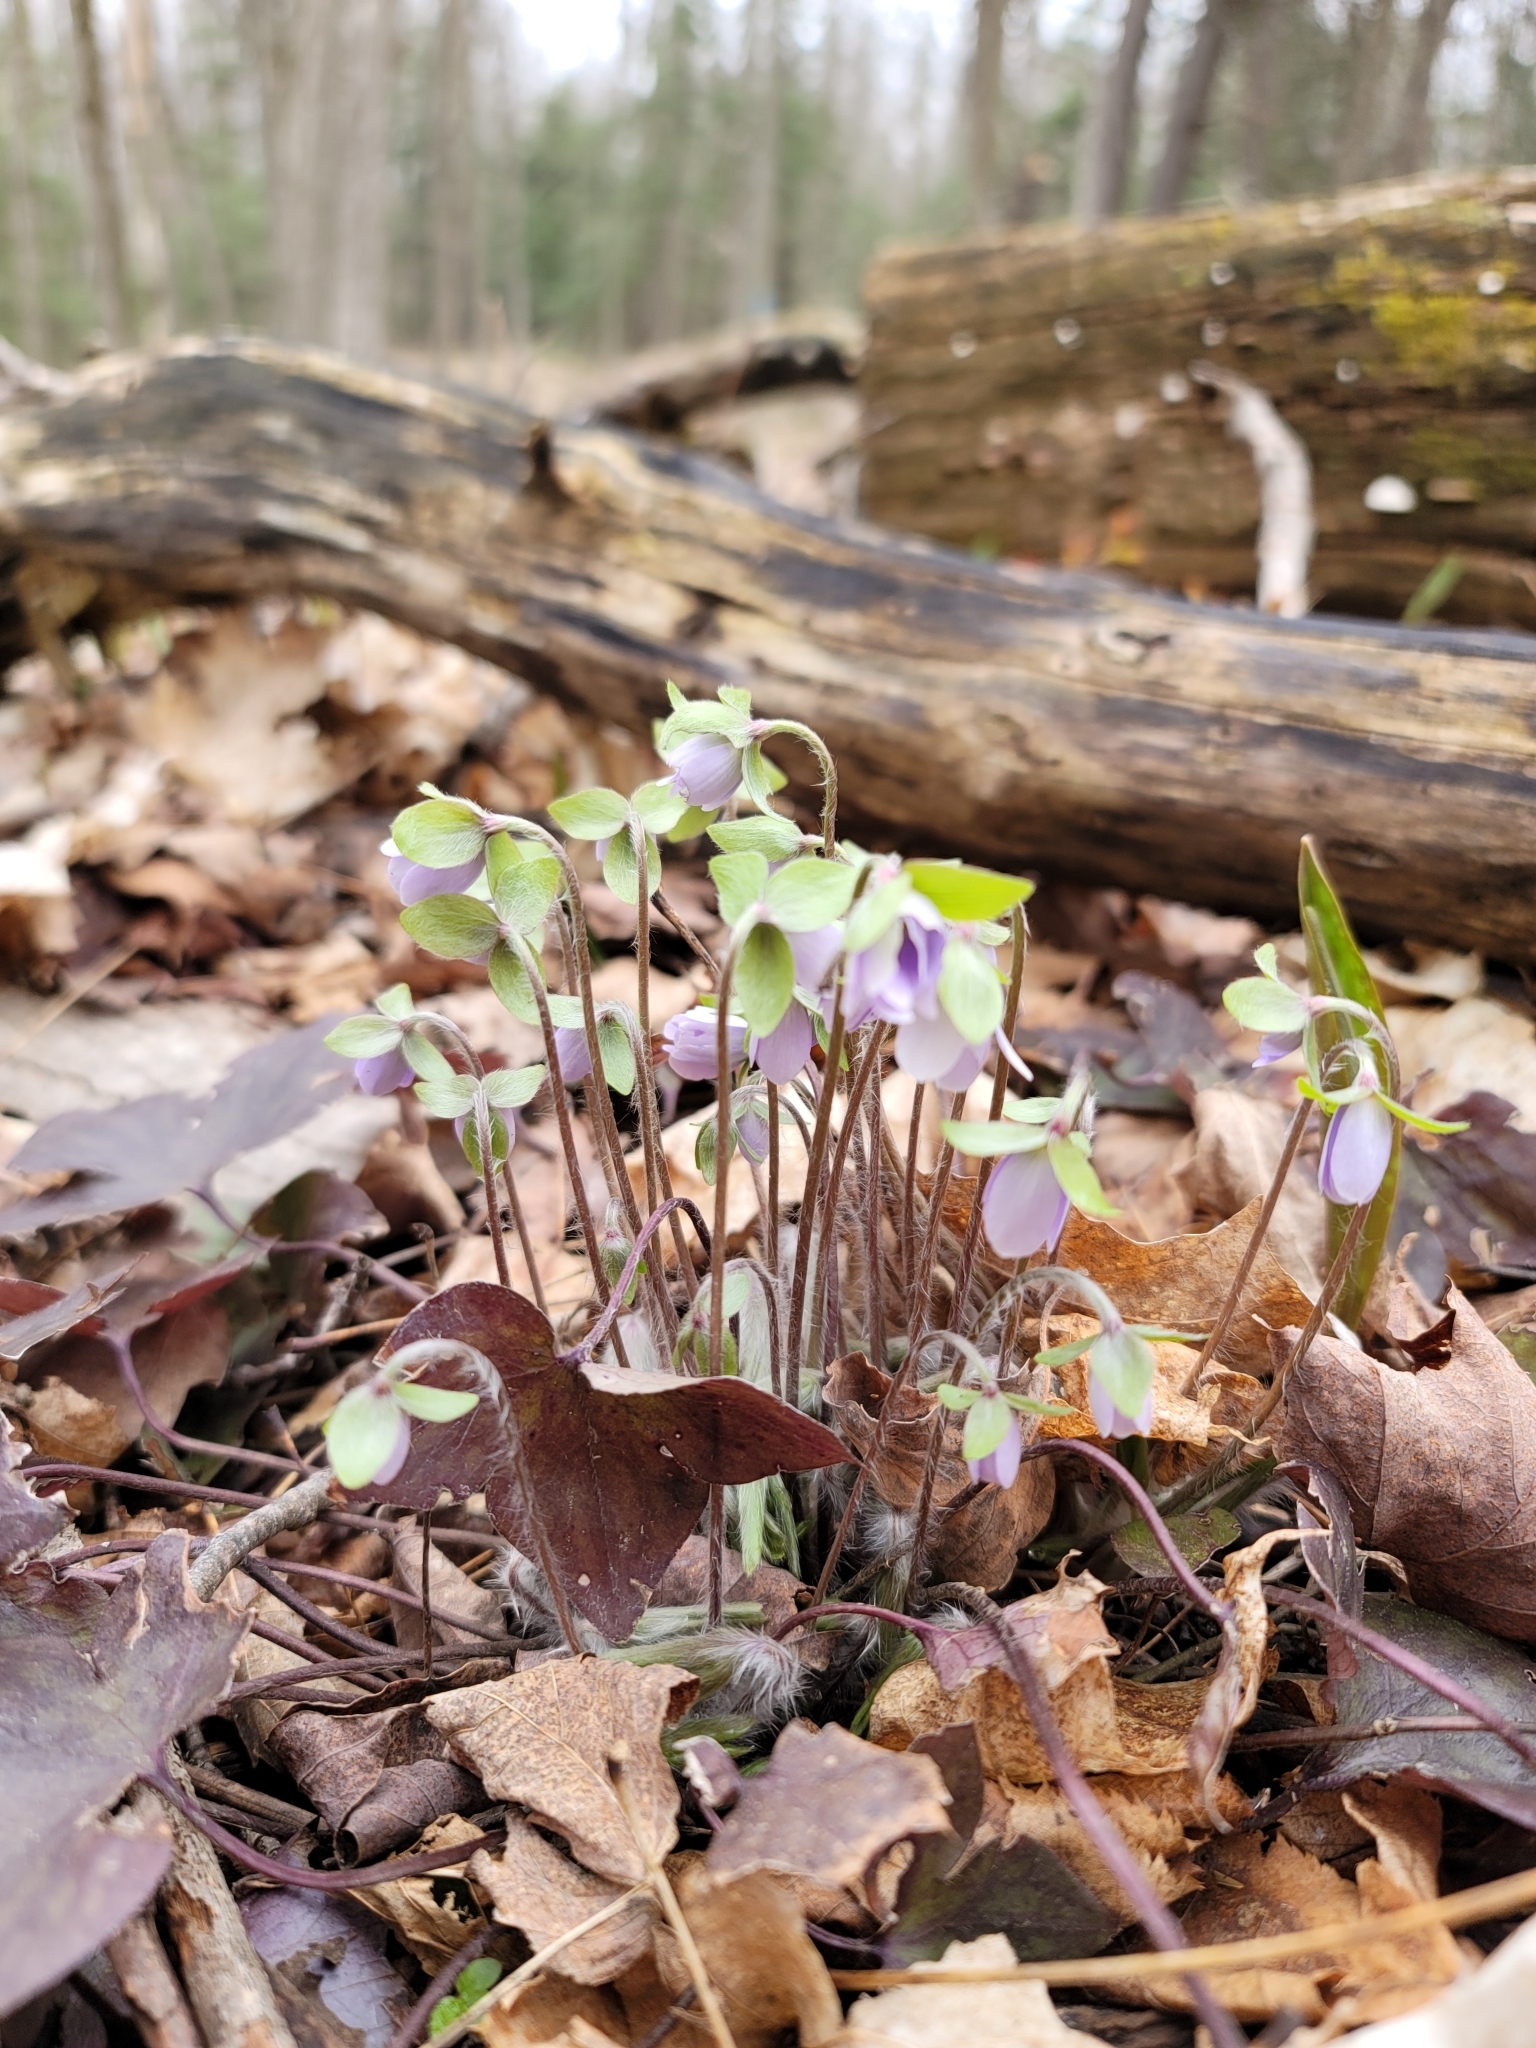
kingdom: Plantae
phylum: Tracheophyta
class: Magnoliopsida
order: Ranunculales
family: Ranunculaceae
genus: Hepatica
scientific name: Hepatica acutiloba
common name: Sharp-lobed hepatica
